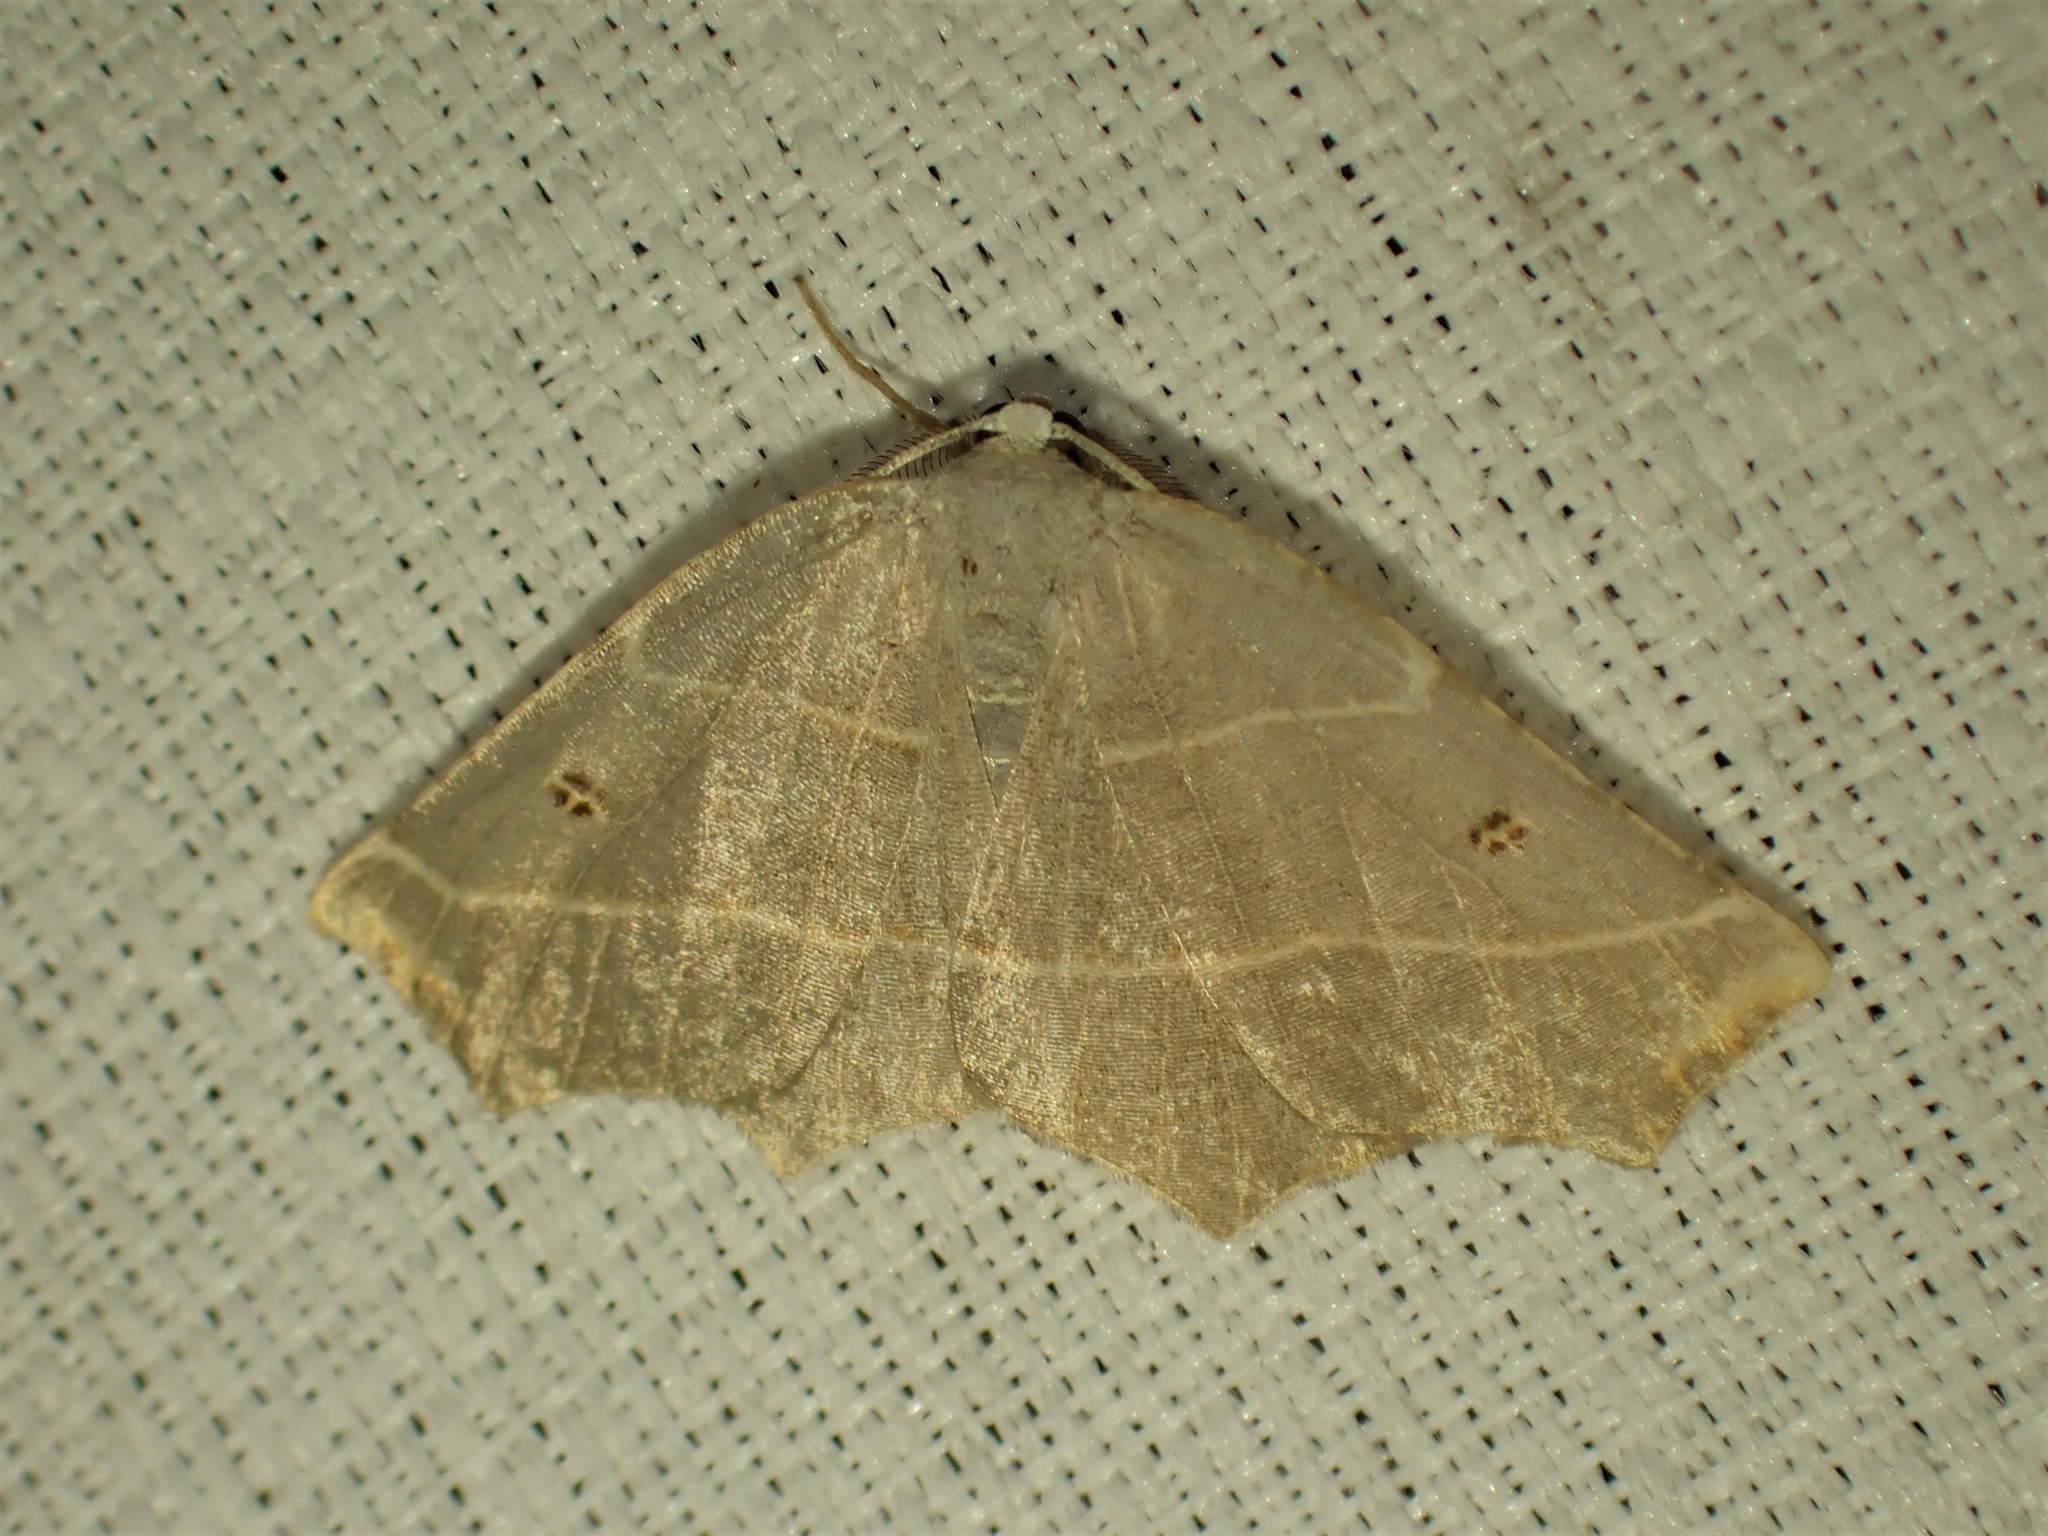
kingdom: Animalia
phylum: Arthropoda
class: Insecta
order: Lepidoptera
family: Geometridae
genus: Metanema
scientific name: Metanema inatomaria
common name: Pale metanema
